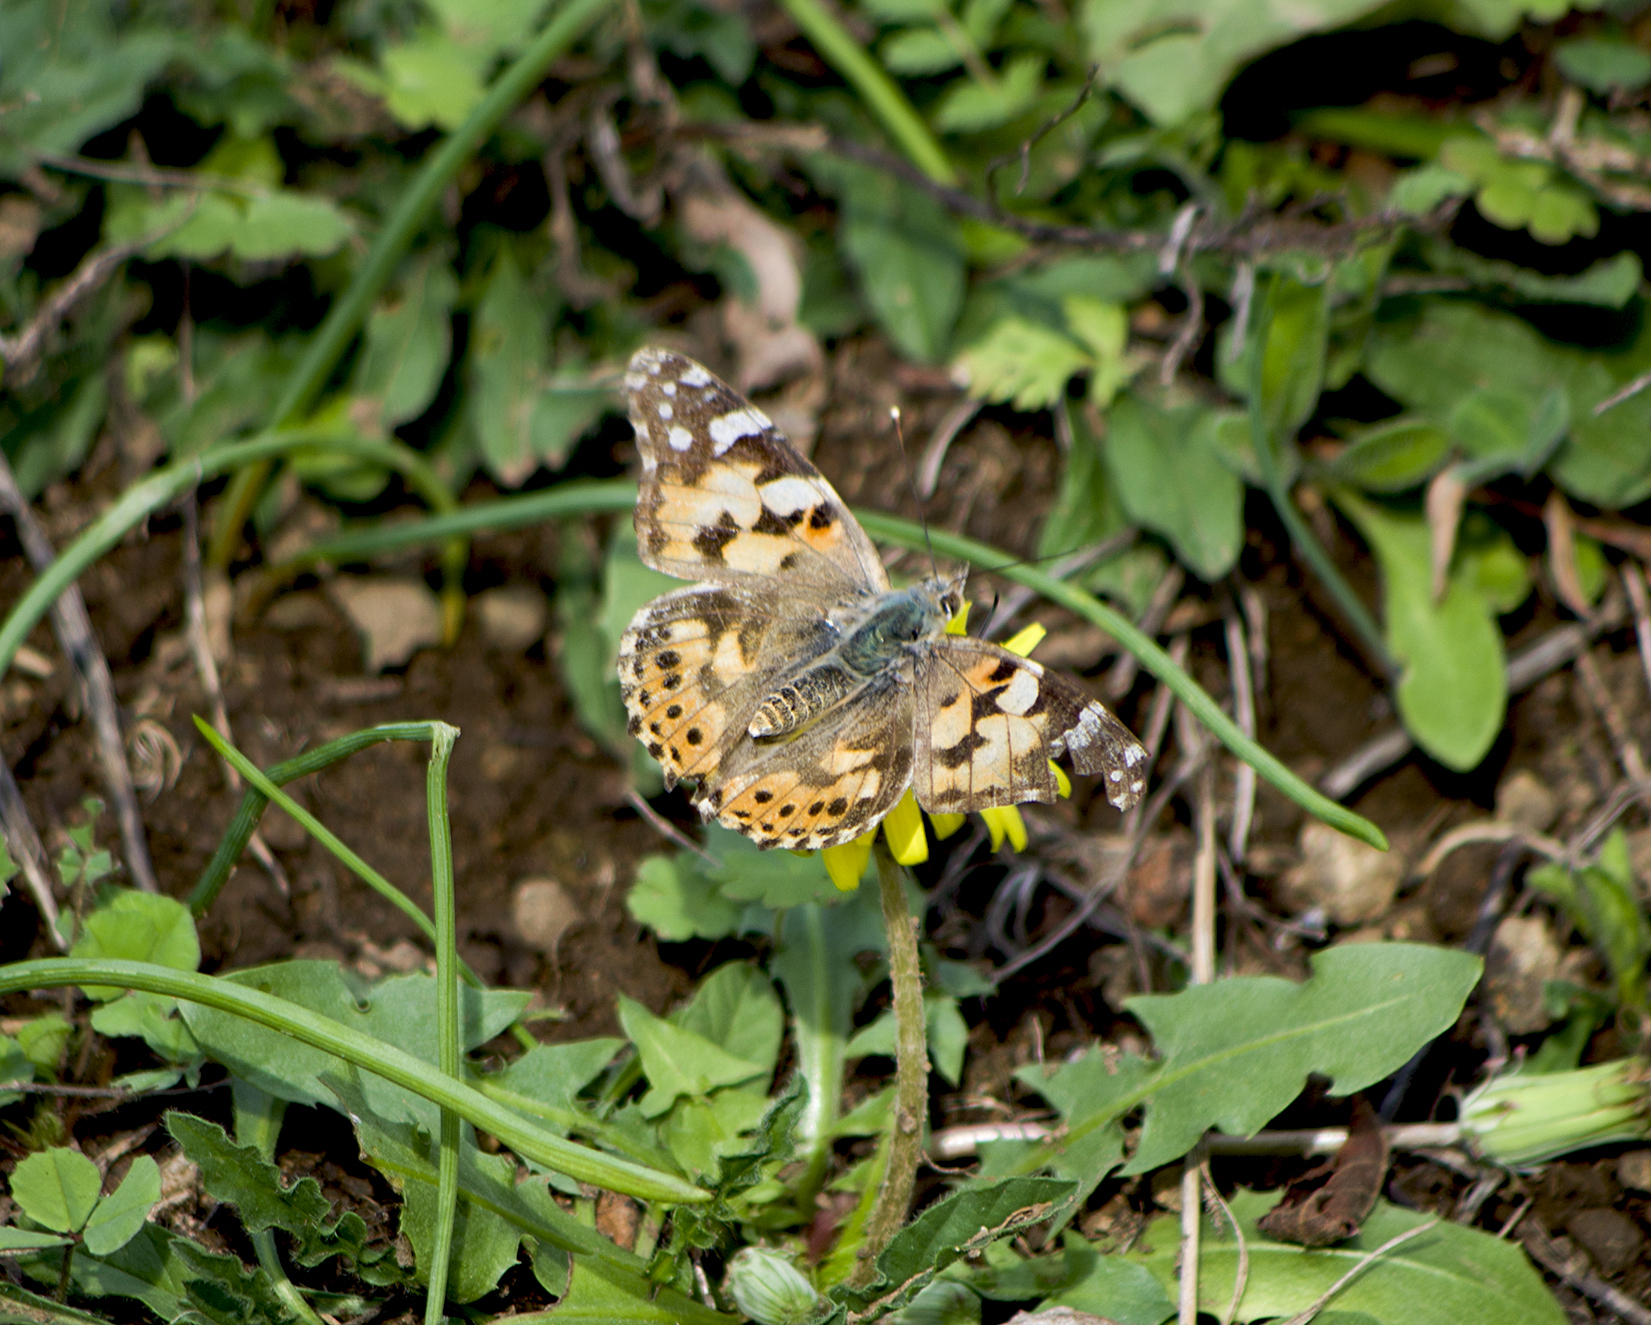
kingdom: Animalia
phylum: Arthropoda
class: Insecta
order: Lepidoptera
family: Nymphalidae
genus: Vanessa
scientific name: Vanessa cardui
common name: Painted lady
